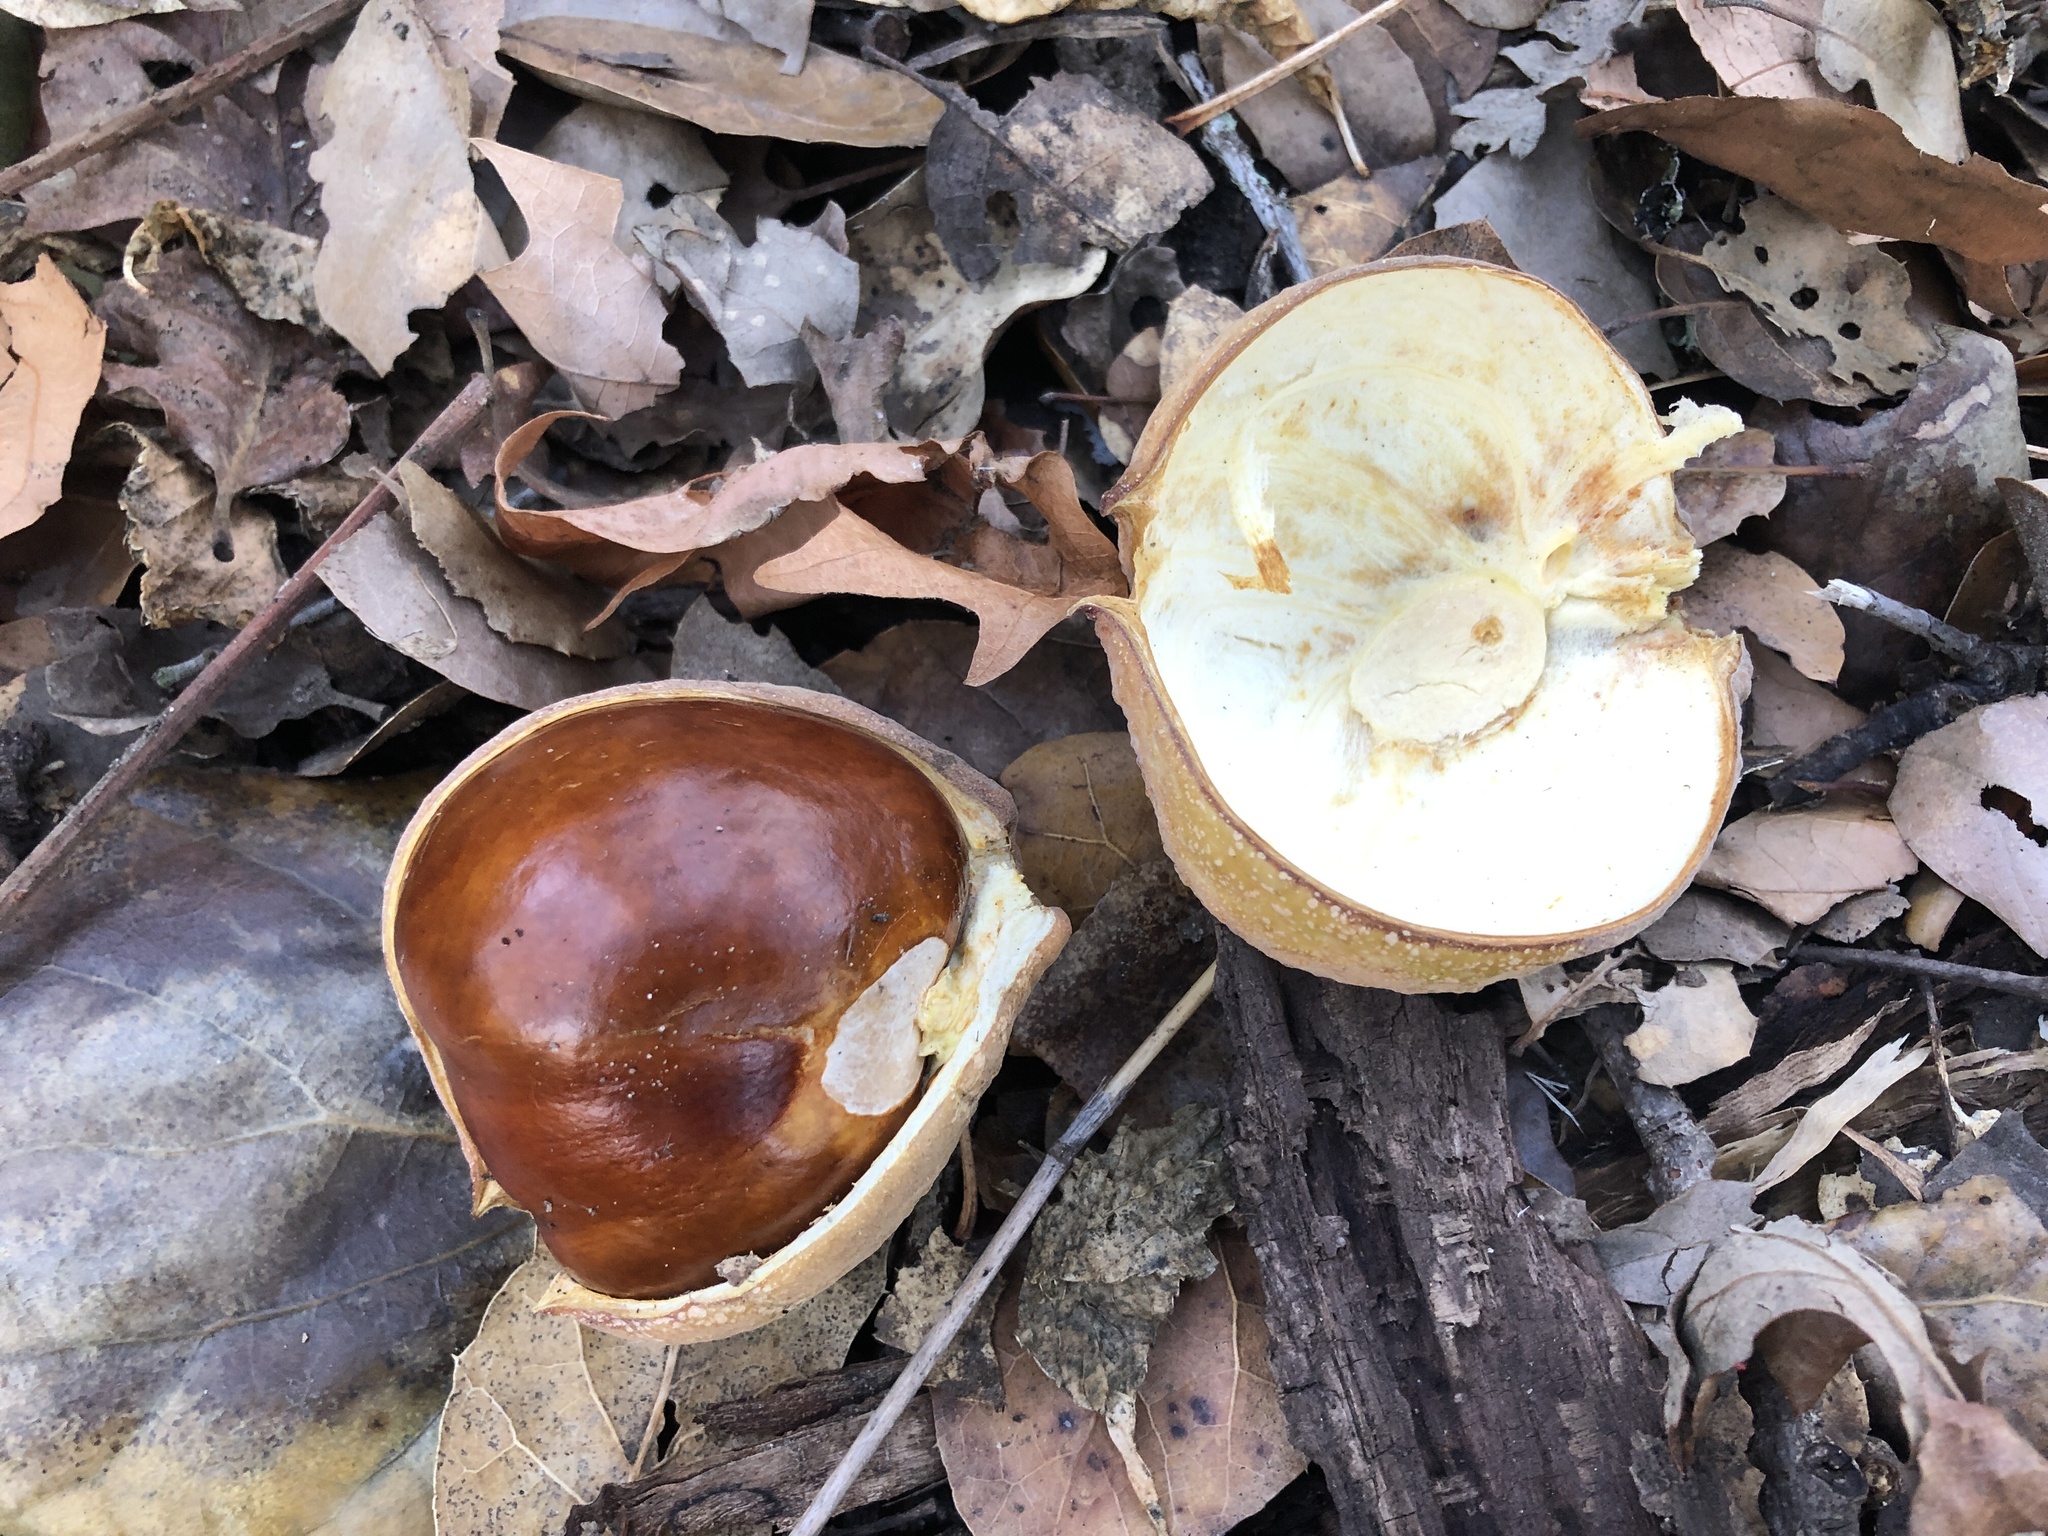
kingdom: Plantae
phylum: Tracheophyta
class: Magnoliopsida
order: Sapindales
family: Sapindaceae
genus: Aesculus
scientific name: Aesculus californica
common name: California buckeye
